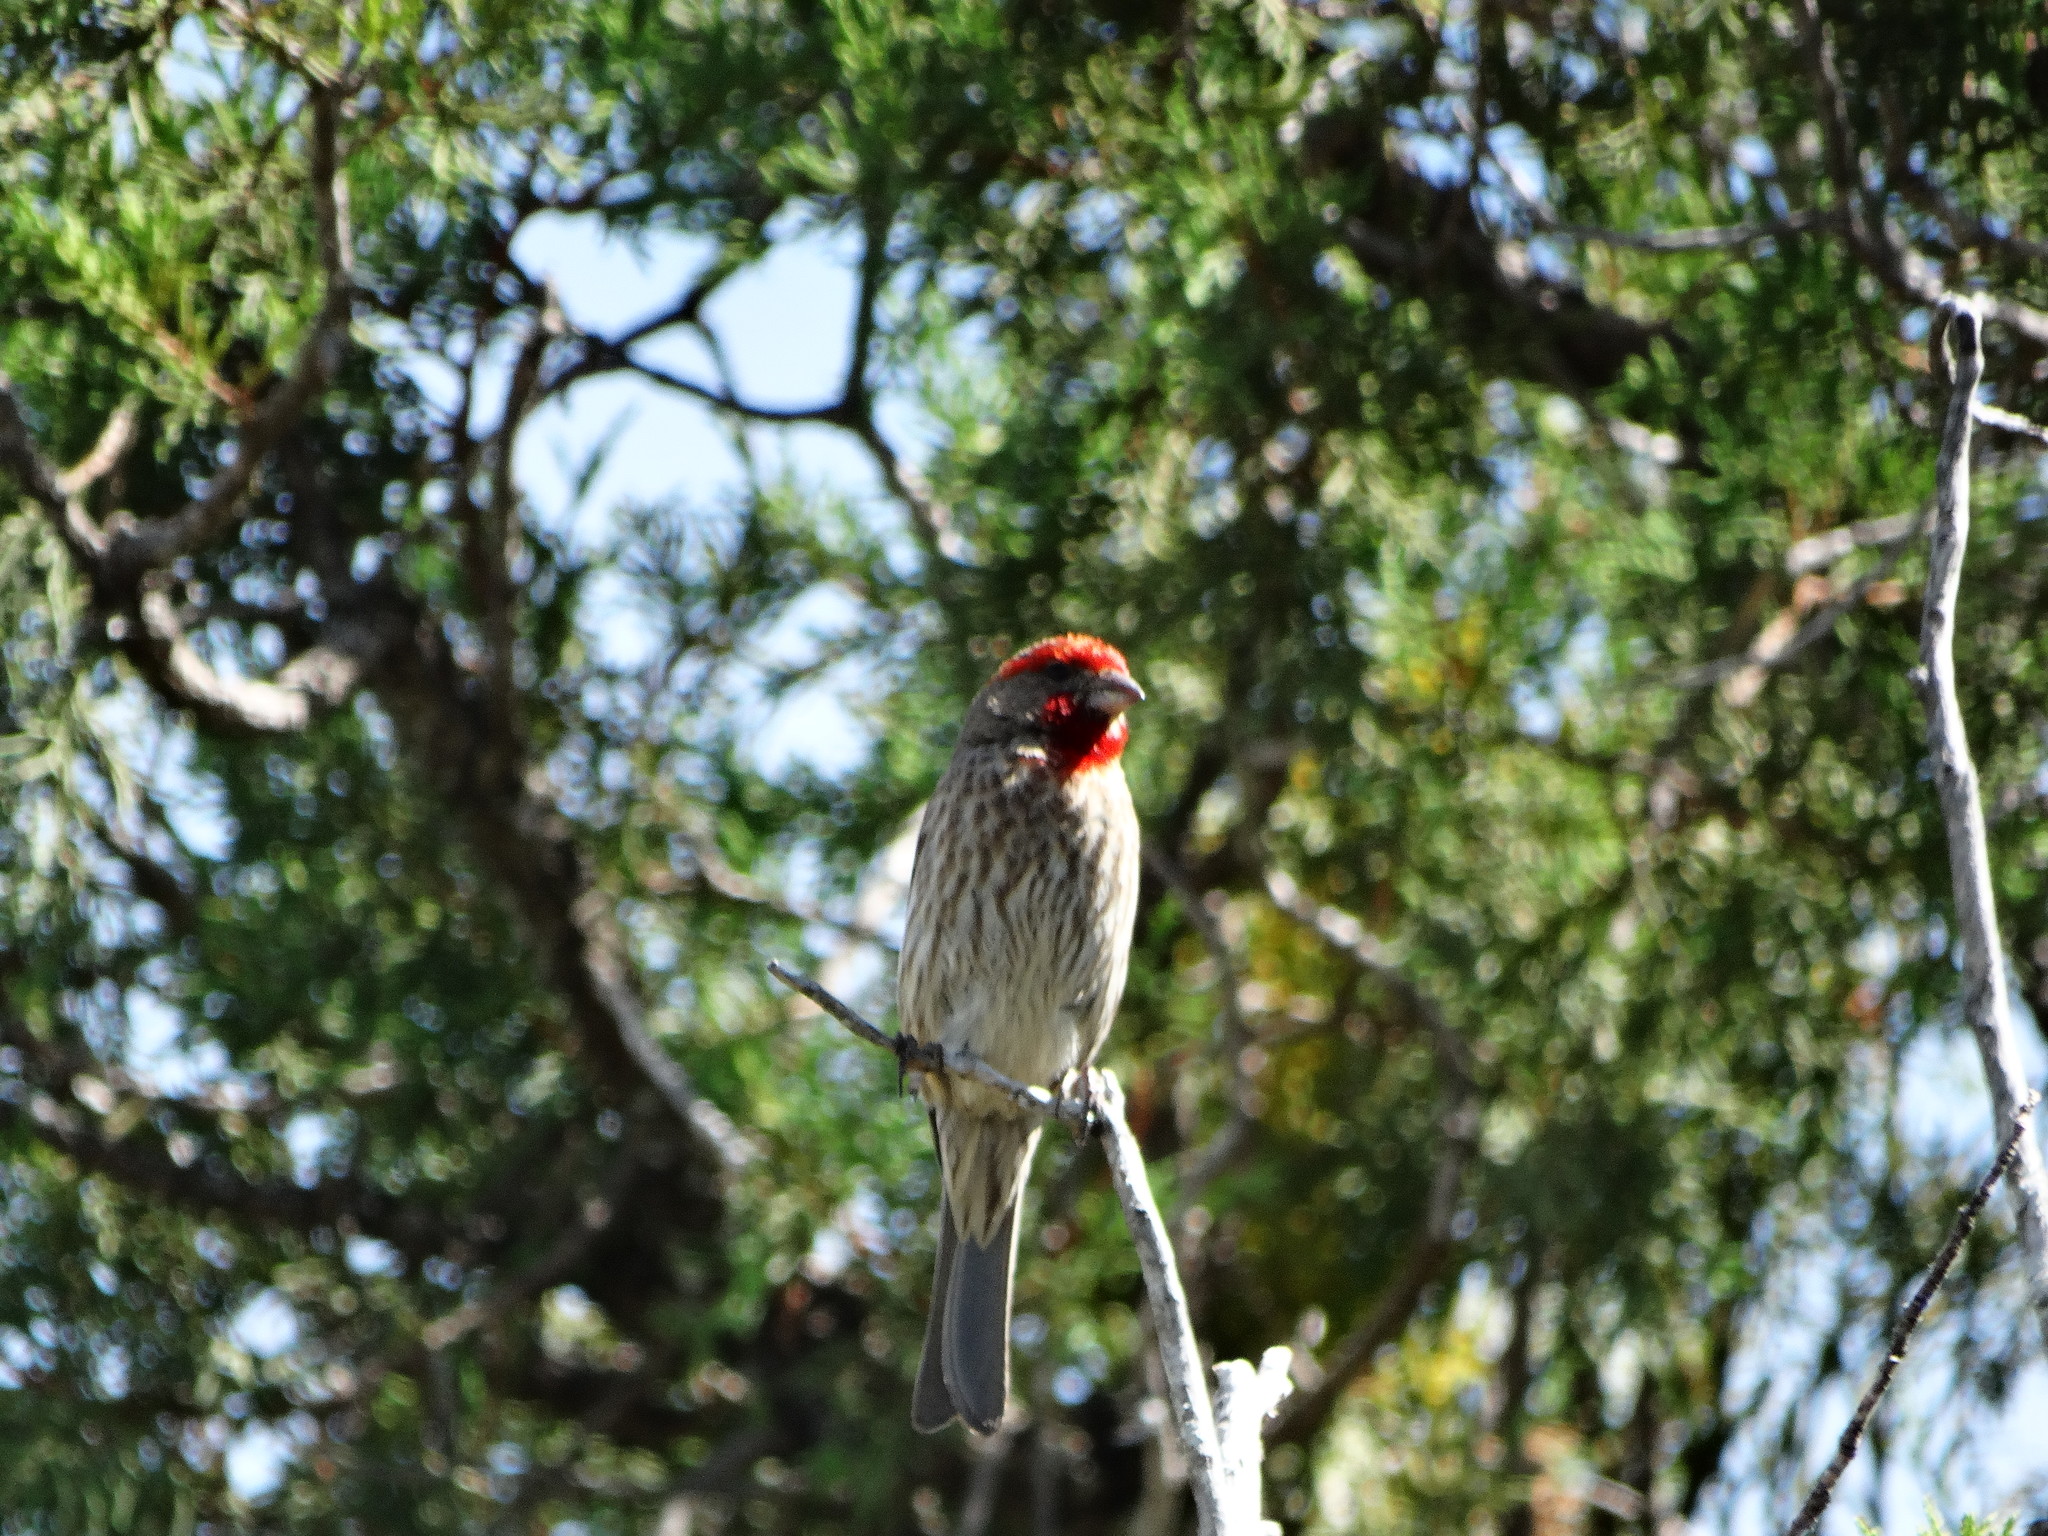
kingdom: Animalia
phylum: Chordata
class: Aves
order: Passeriformes
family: Fringillidae
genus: Haemorhous
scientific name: Haemorhous mexicanus
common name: House finch
